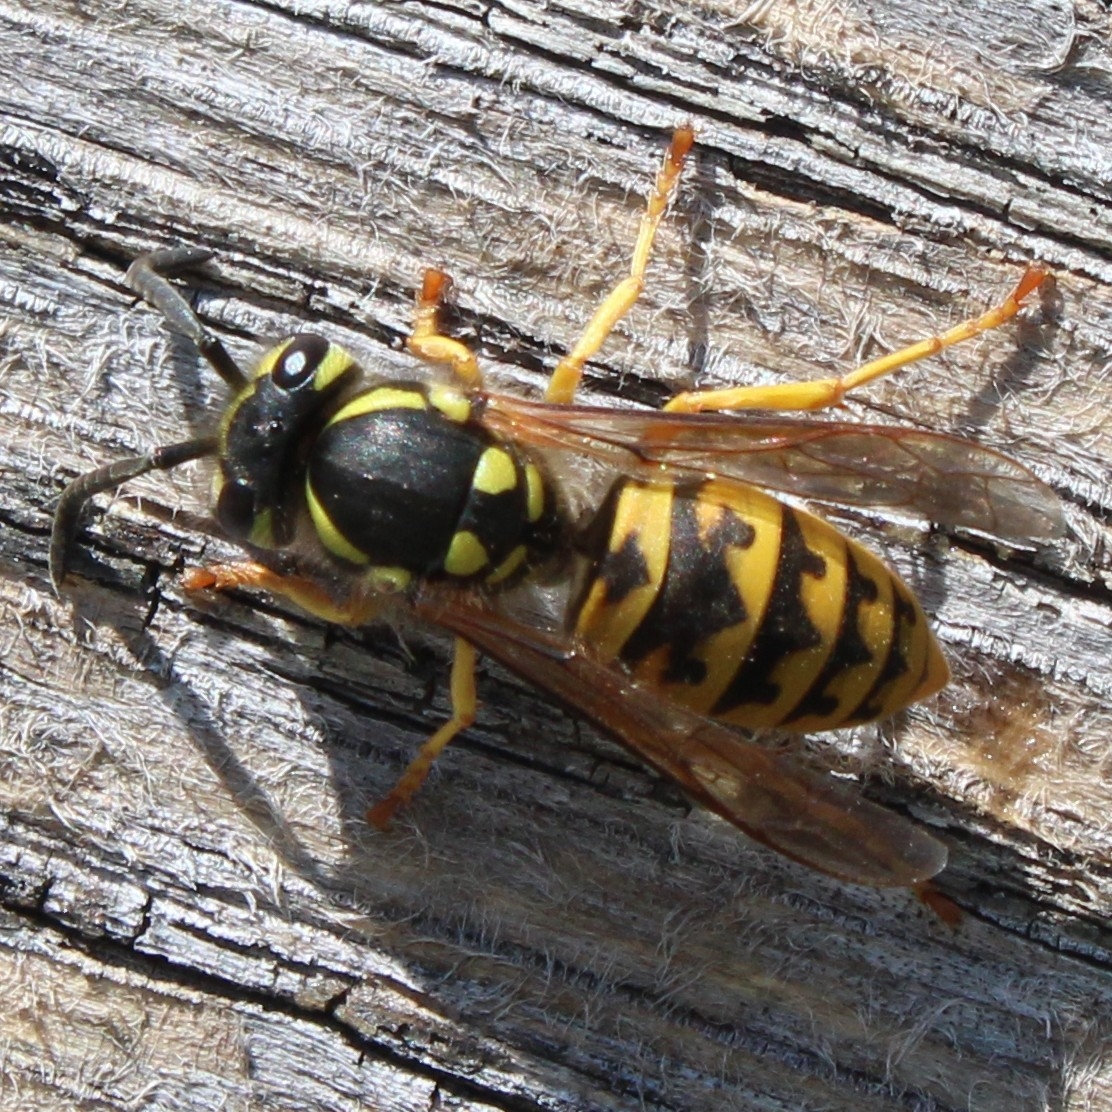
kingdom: Animalia
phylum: Arthropoda
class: Insecta
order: Hymenoptera
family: Vespidae
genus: Vespula
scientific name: Vespula germanica
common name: German wasp
